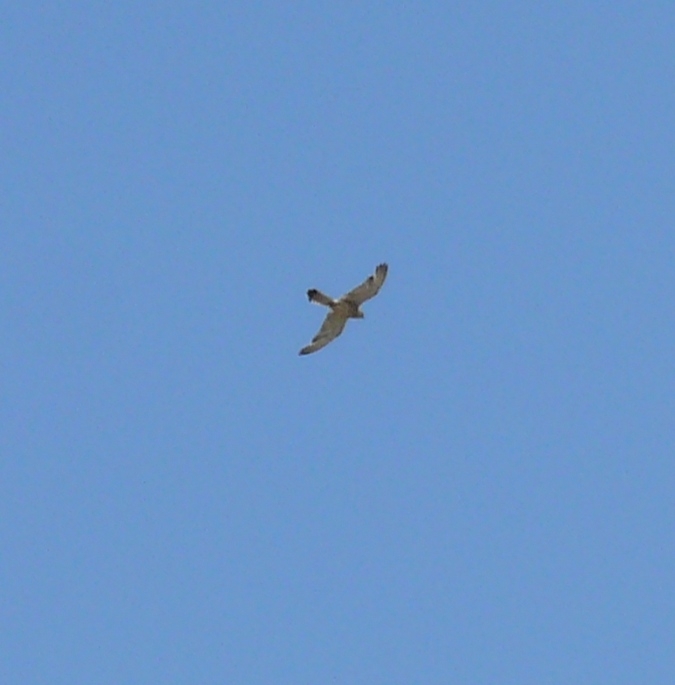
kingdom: Animalia
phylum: Chordata
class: Aves
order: Falconiformes
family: Falconidae
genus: Falco
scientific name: Falco naumanni
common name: Lesser kestrel
